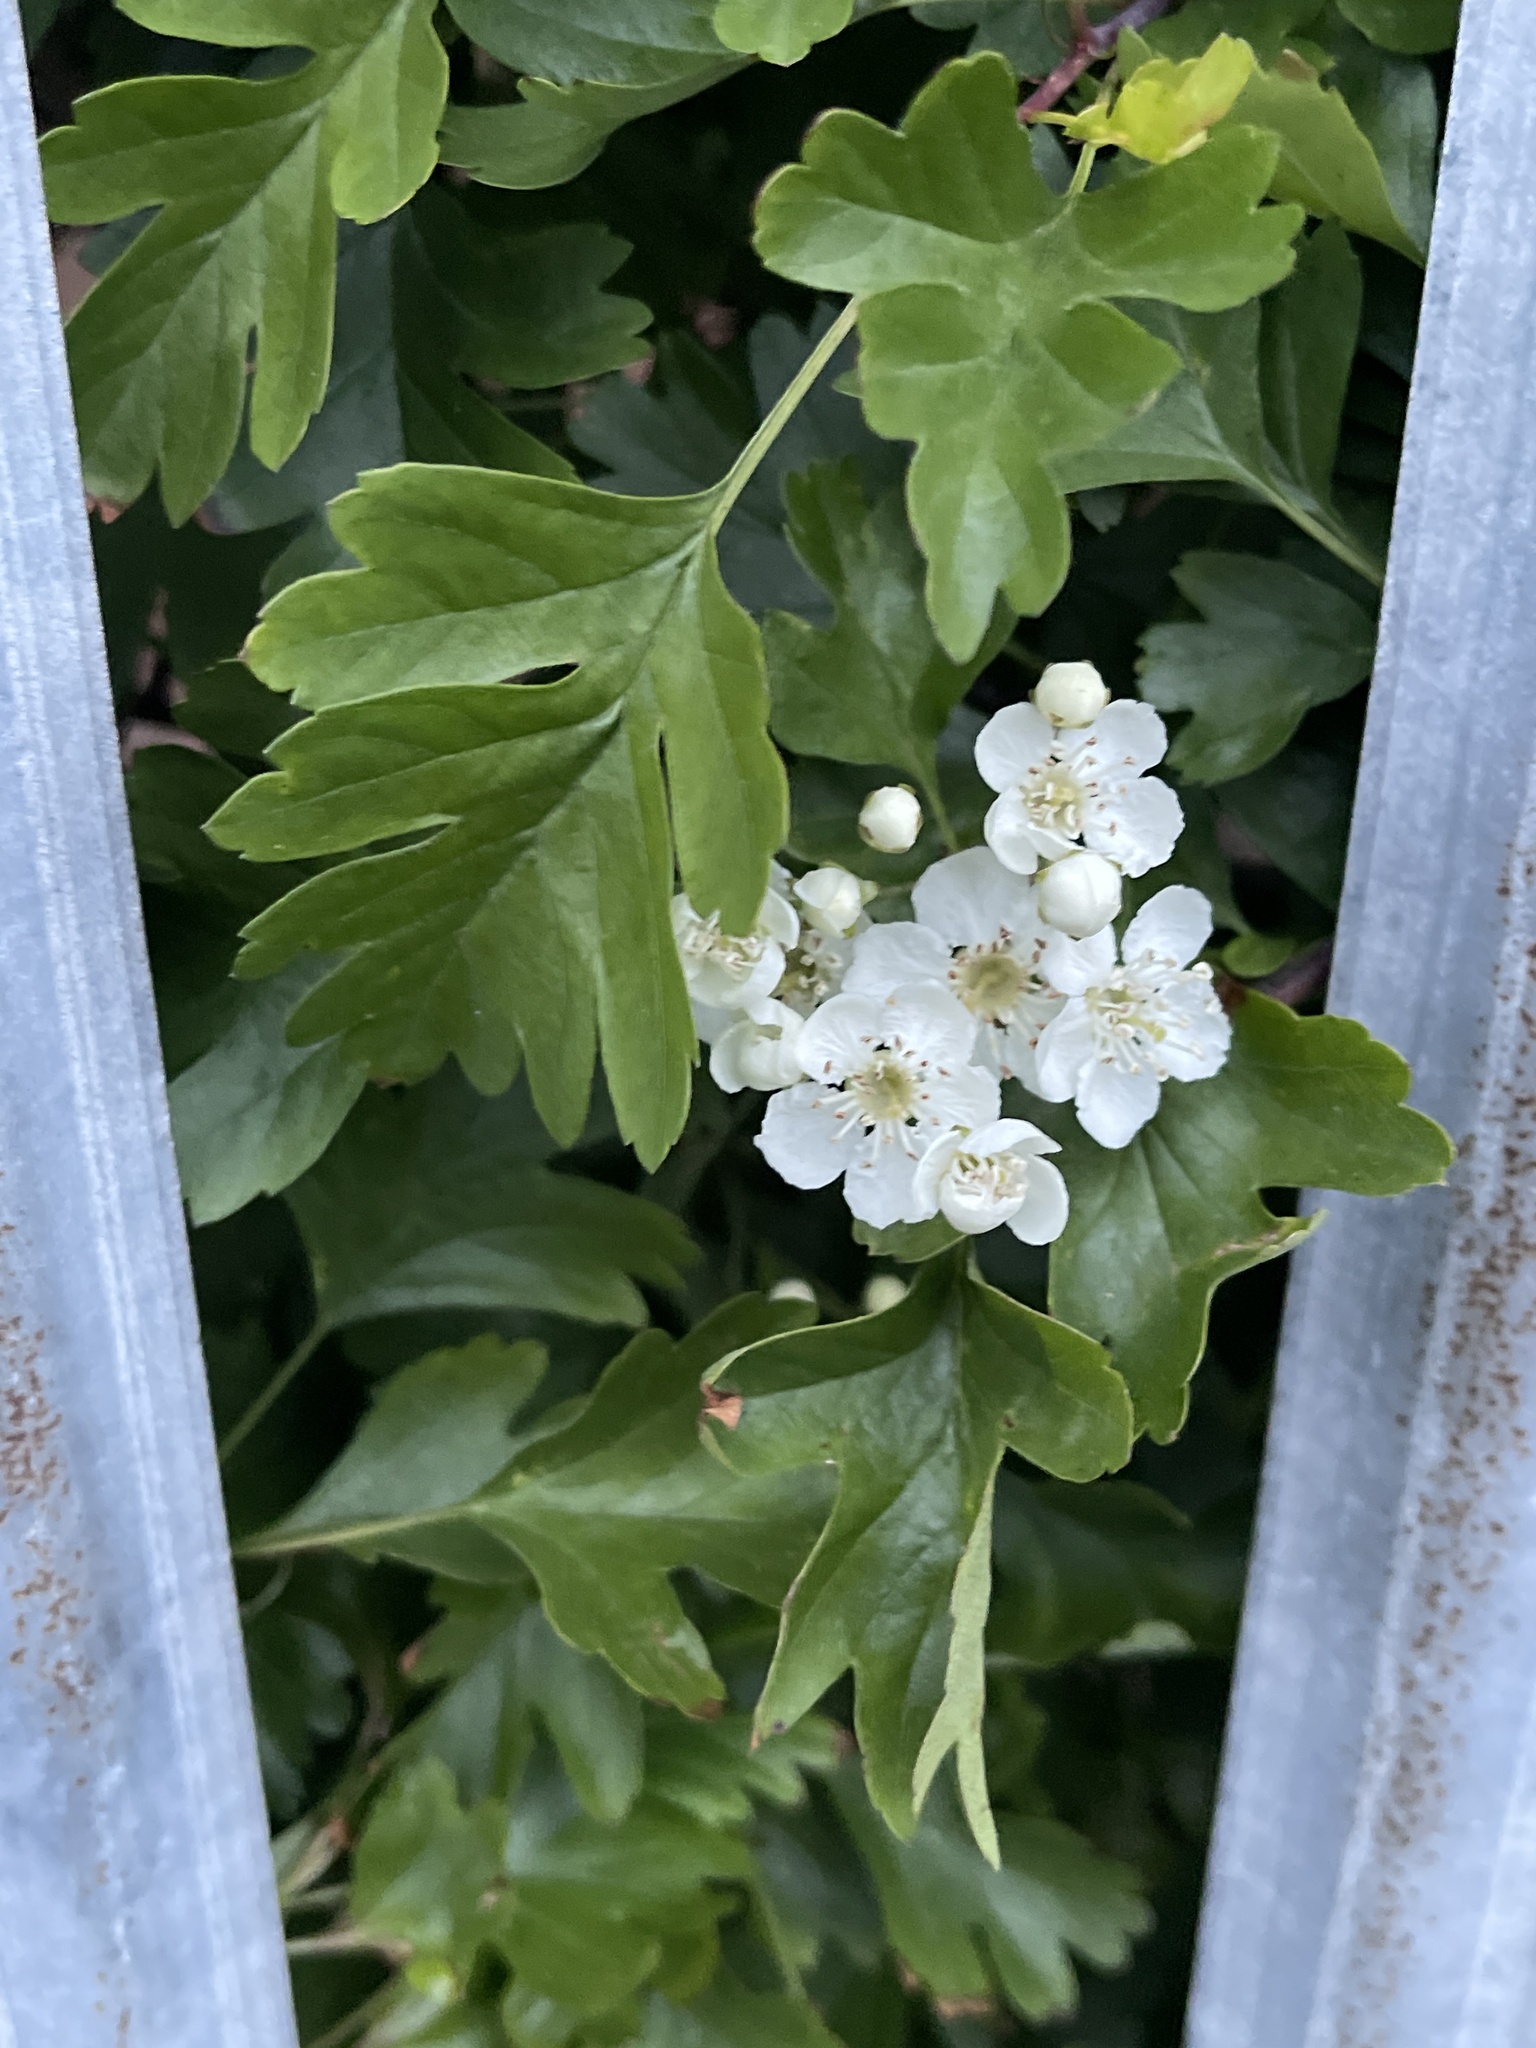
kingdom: Plantae
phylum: Tracheophyta
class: Magnoliopsida
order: Rosales
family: Rosaceae
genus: Crataegus
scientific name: Crataegus monogyna
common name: Hawthorn
